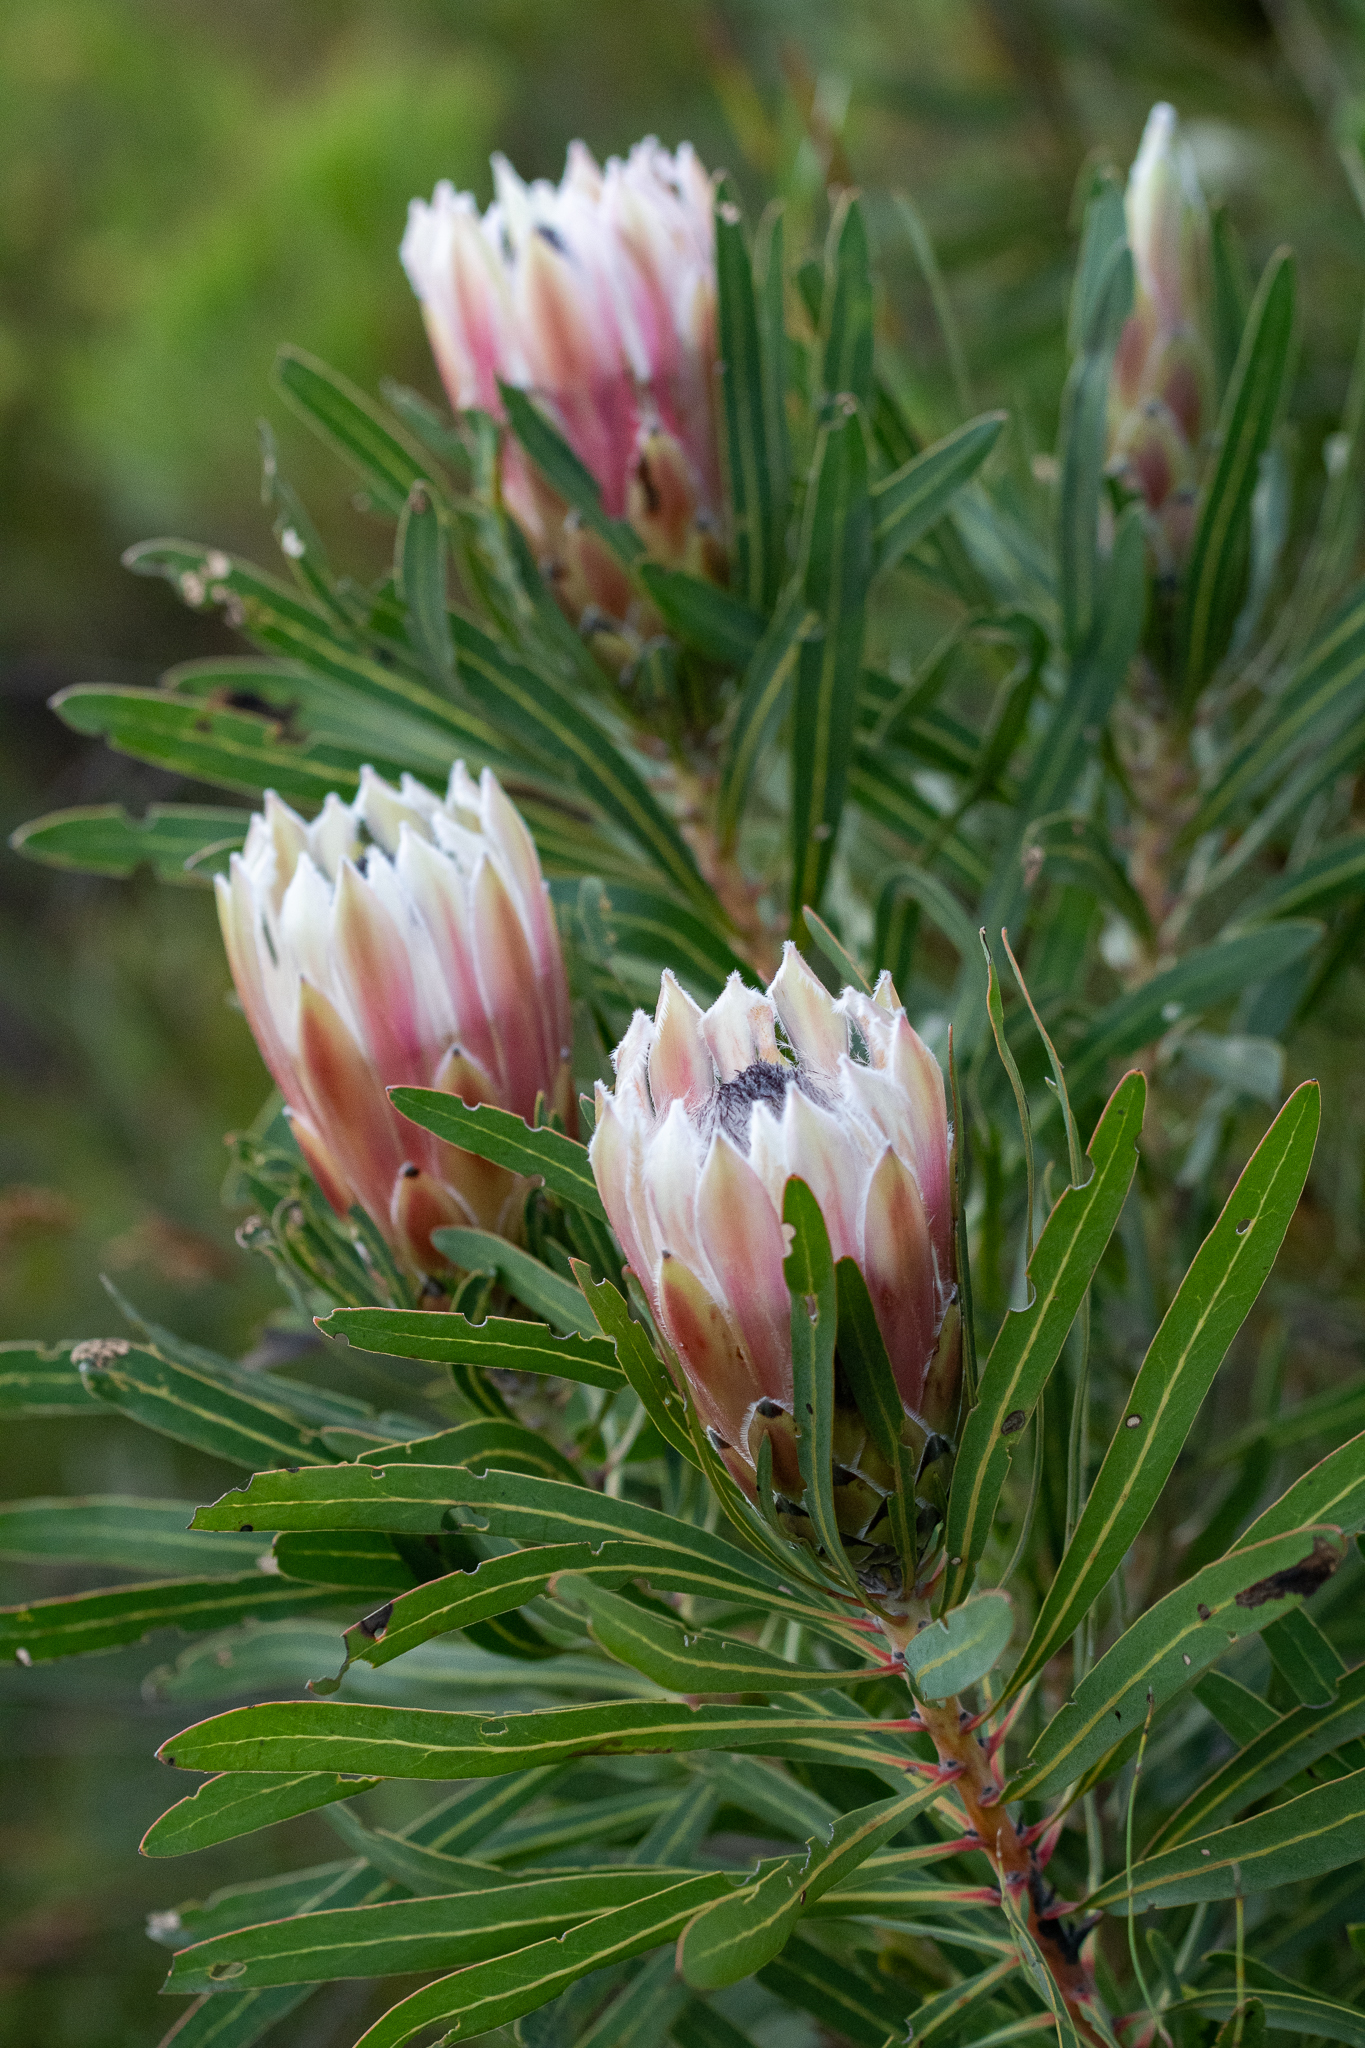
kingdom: Plantae
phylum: Tracheophyta
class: Magnoliopsida
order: Proteales
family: Proteaceae
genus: Protea
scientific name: Protea
